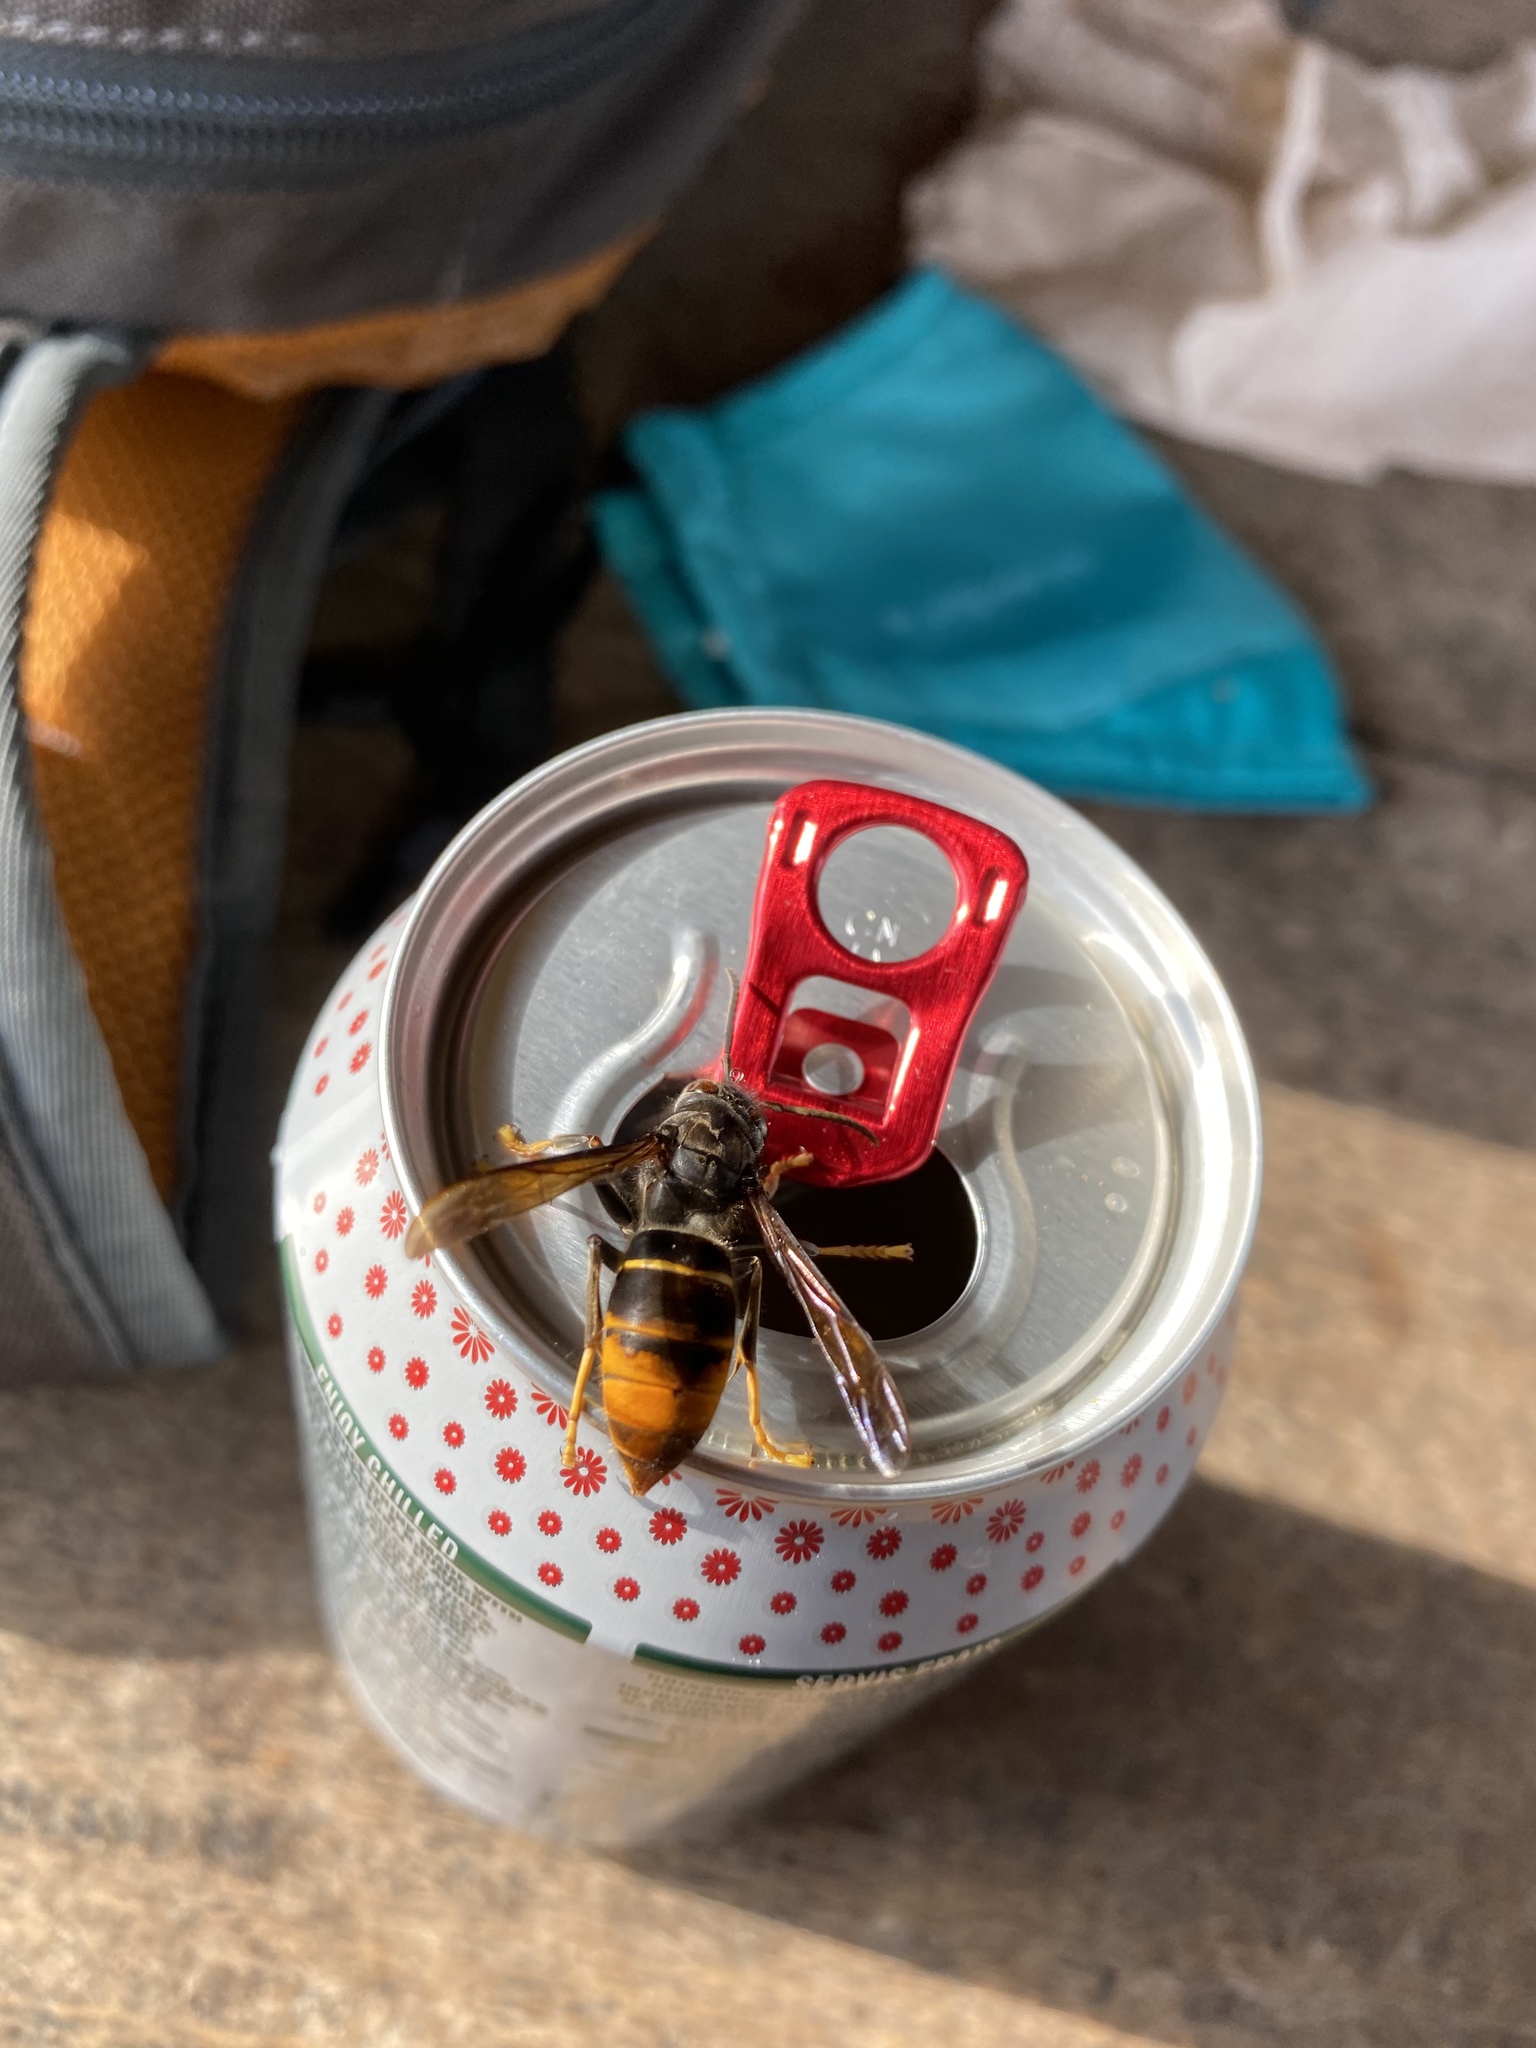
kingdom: Animalia
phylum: Arthropoda
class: Insecta
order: Hymenoptera
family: Vespidae
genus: Vespa
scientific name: Vespa velutina
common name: Asian hornet
